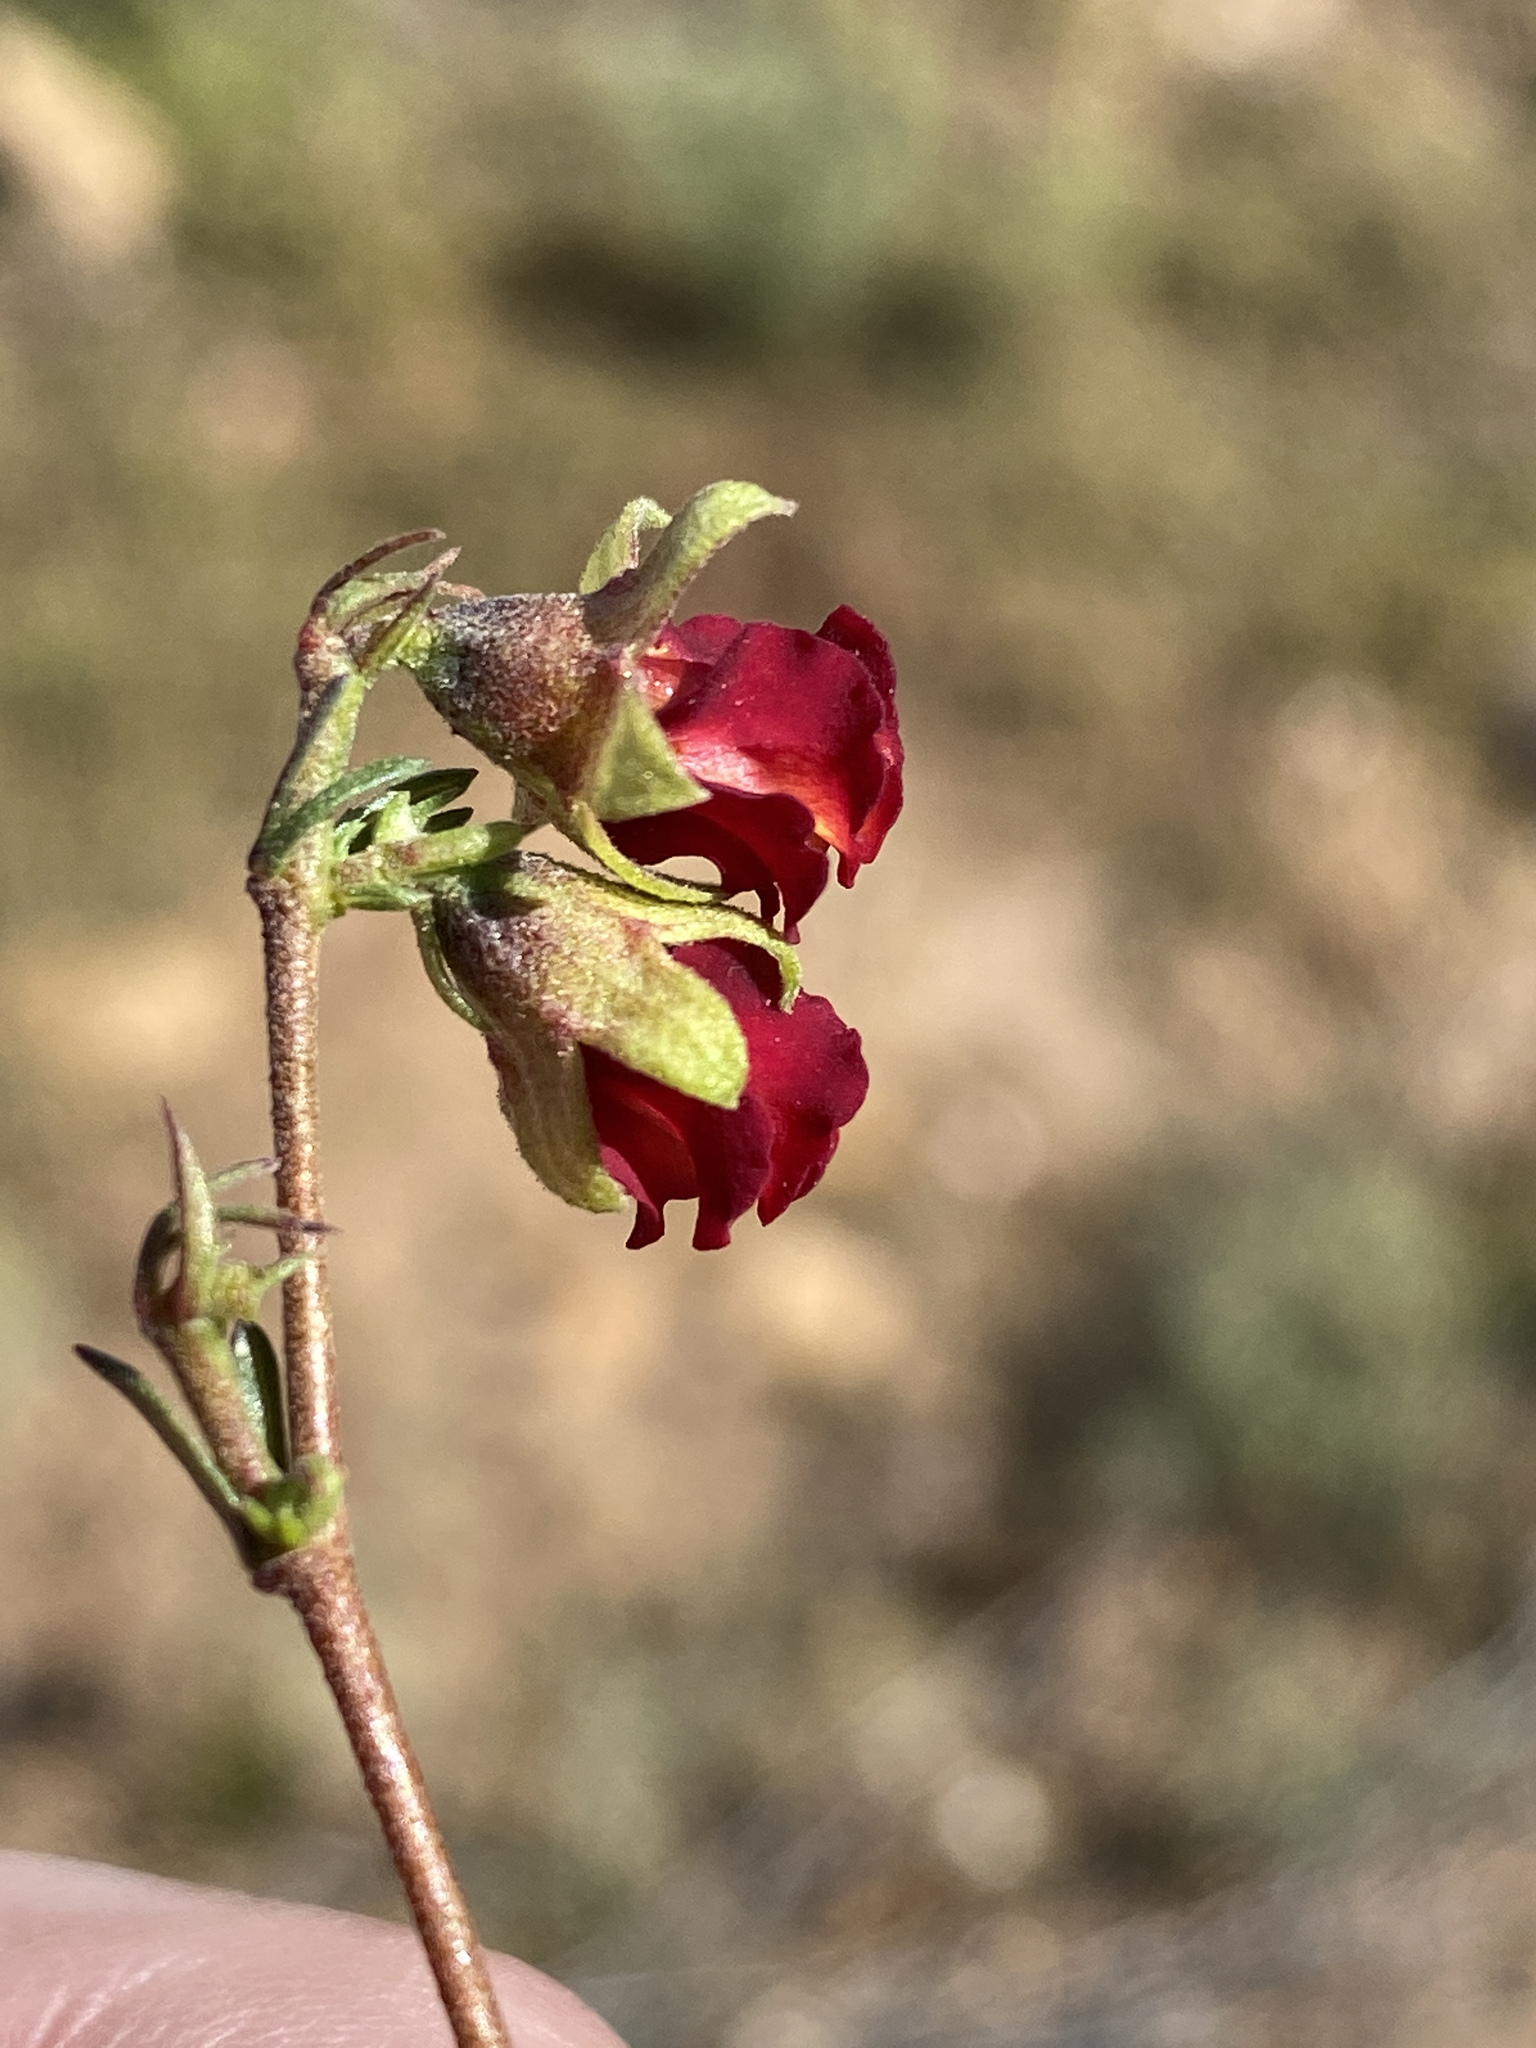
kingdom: Plantae
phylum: Tracheophyta
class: Magnoliopsida
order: Malvales
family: Malvaceae
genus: Hermannia
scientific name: Hermannia filifolia
